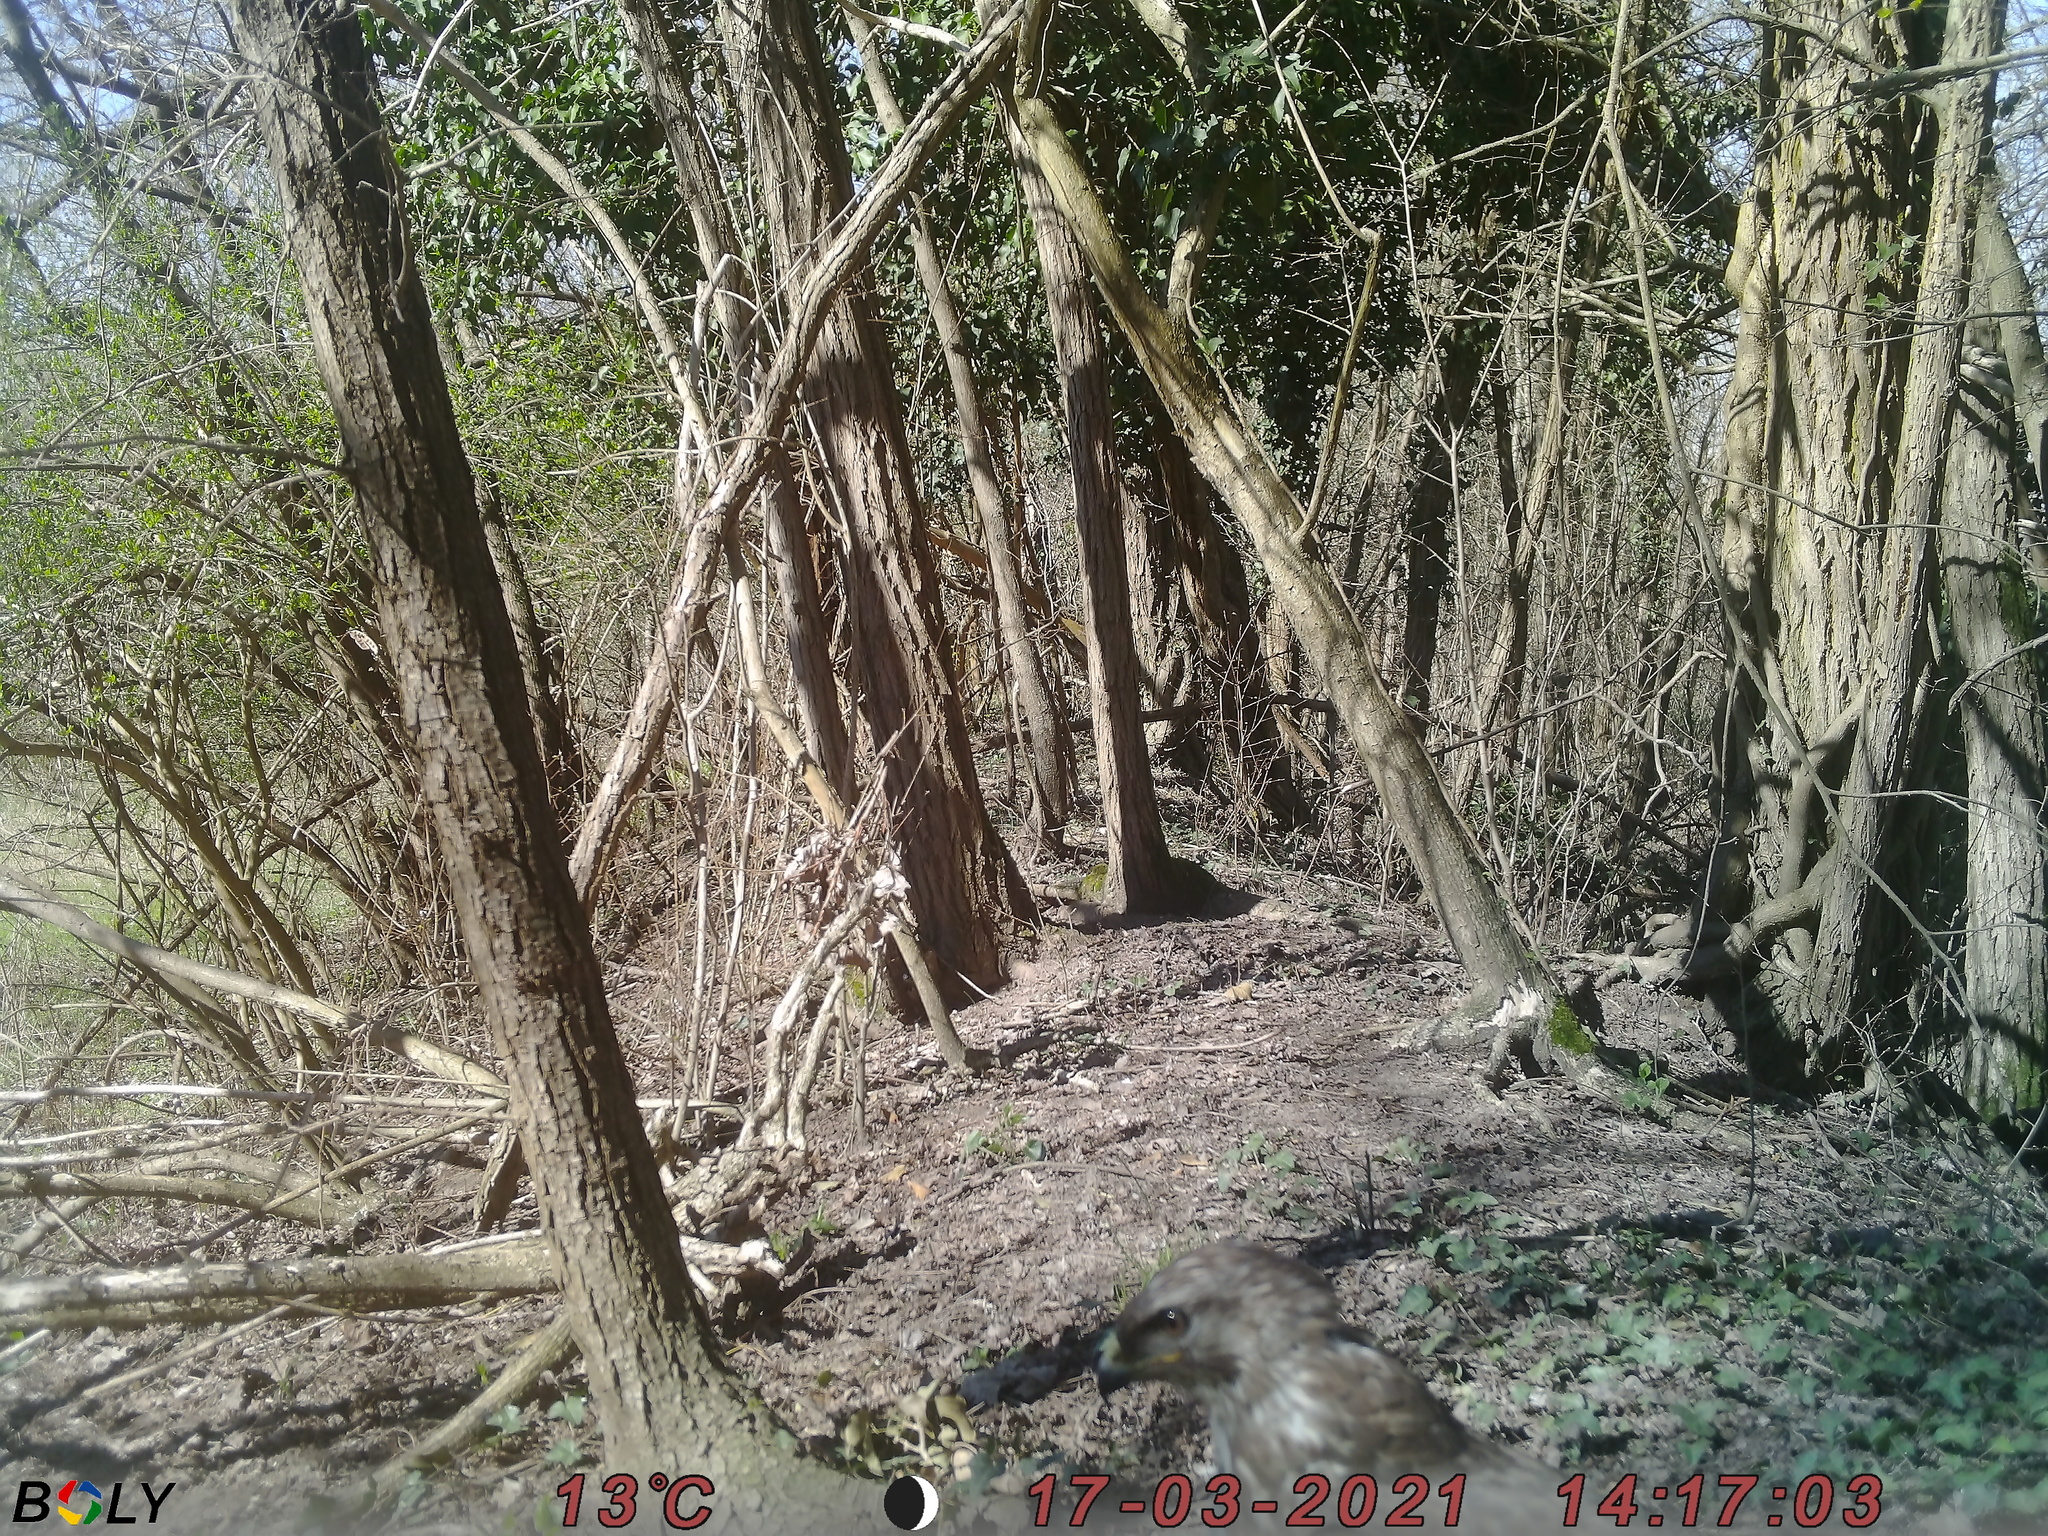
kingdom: Animalia
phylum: Chordata
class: Aves
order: Accipitriformes
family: Accipitridae
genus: Buteo
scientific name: Buteo buteo
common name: Common buzzard
